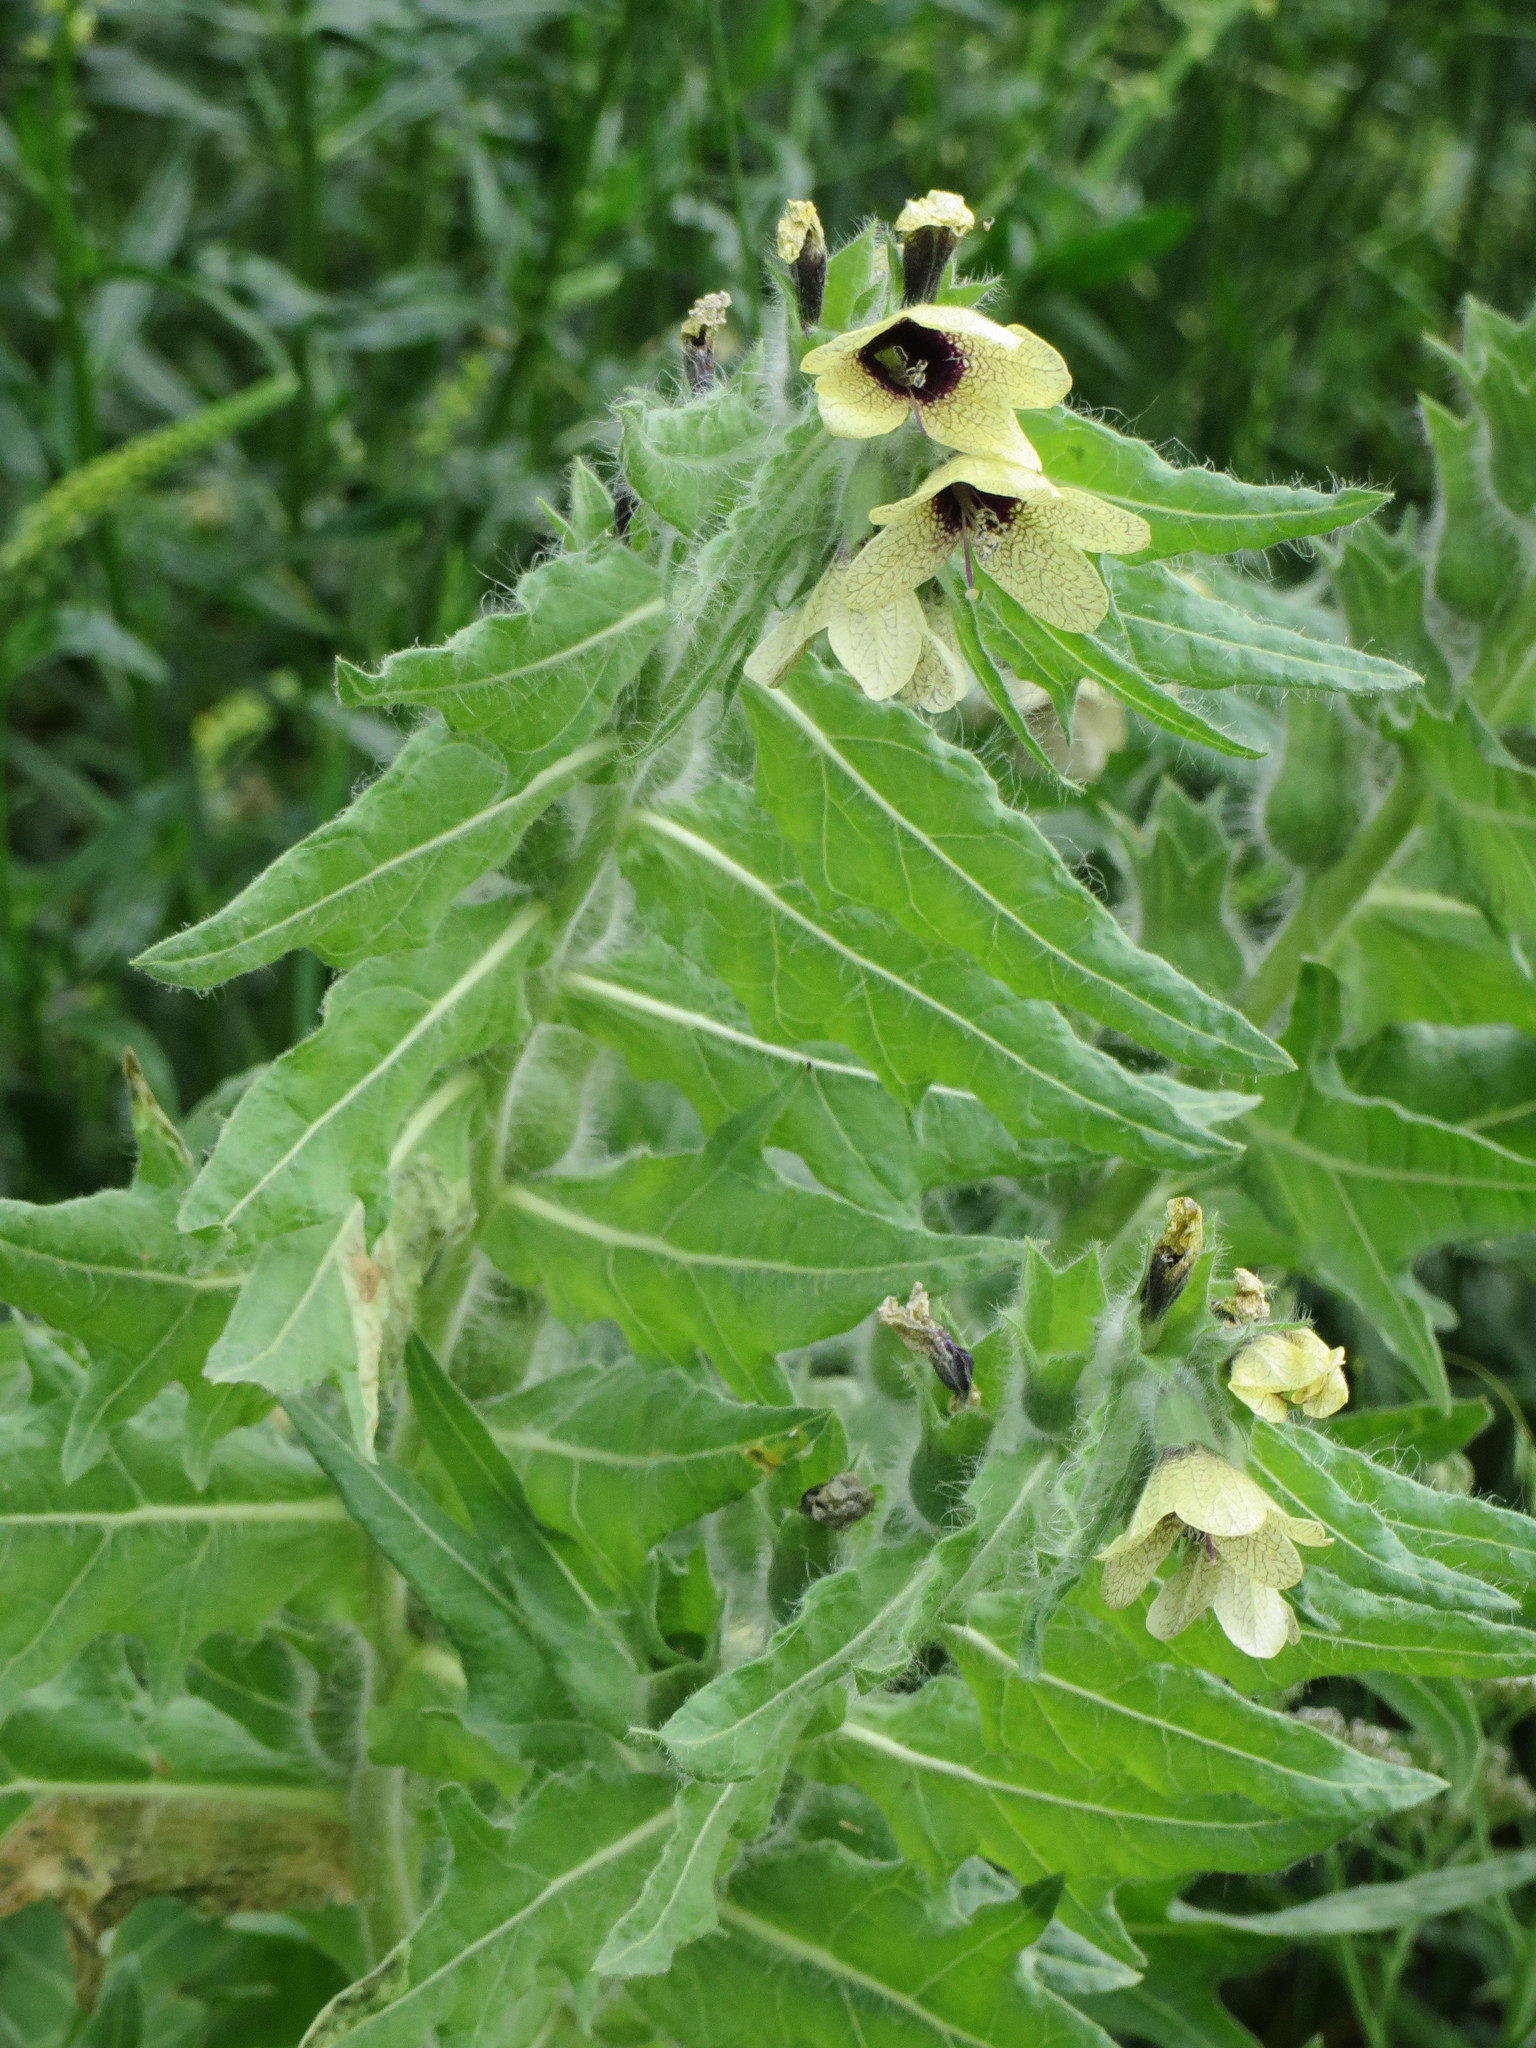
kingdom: Plantae
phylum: Tracheophyta
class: Magnoliopsida
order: Solanales
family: Solanaceae
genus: Hyoscyamus
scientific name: Hyoscyamus niger
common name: Henbane
